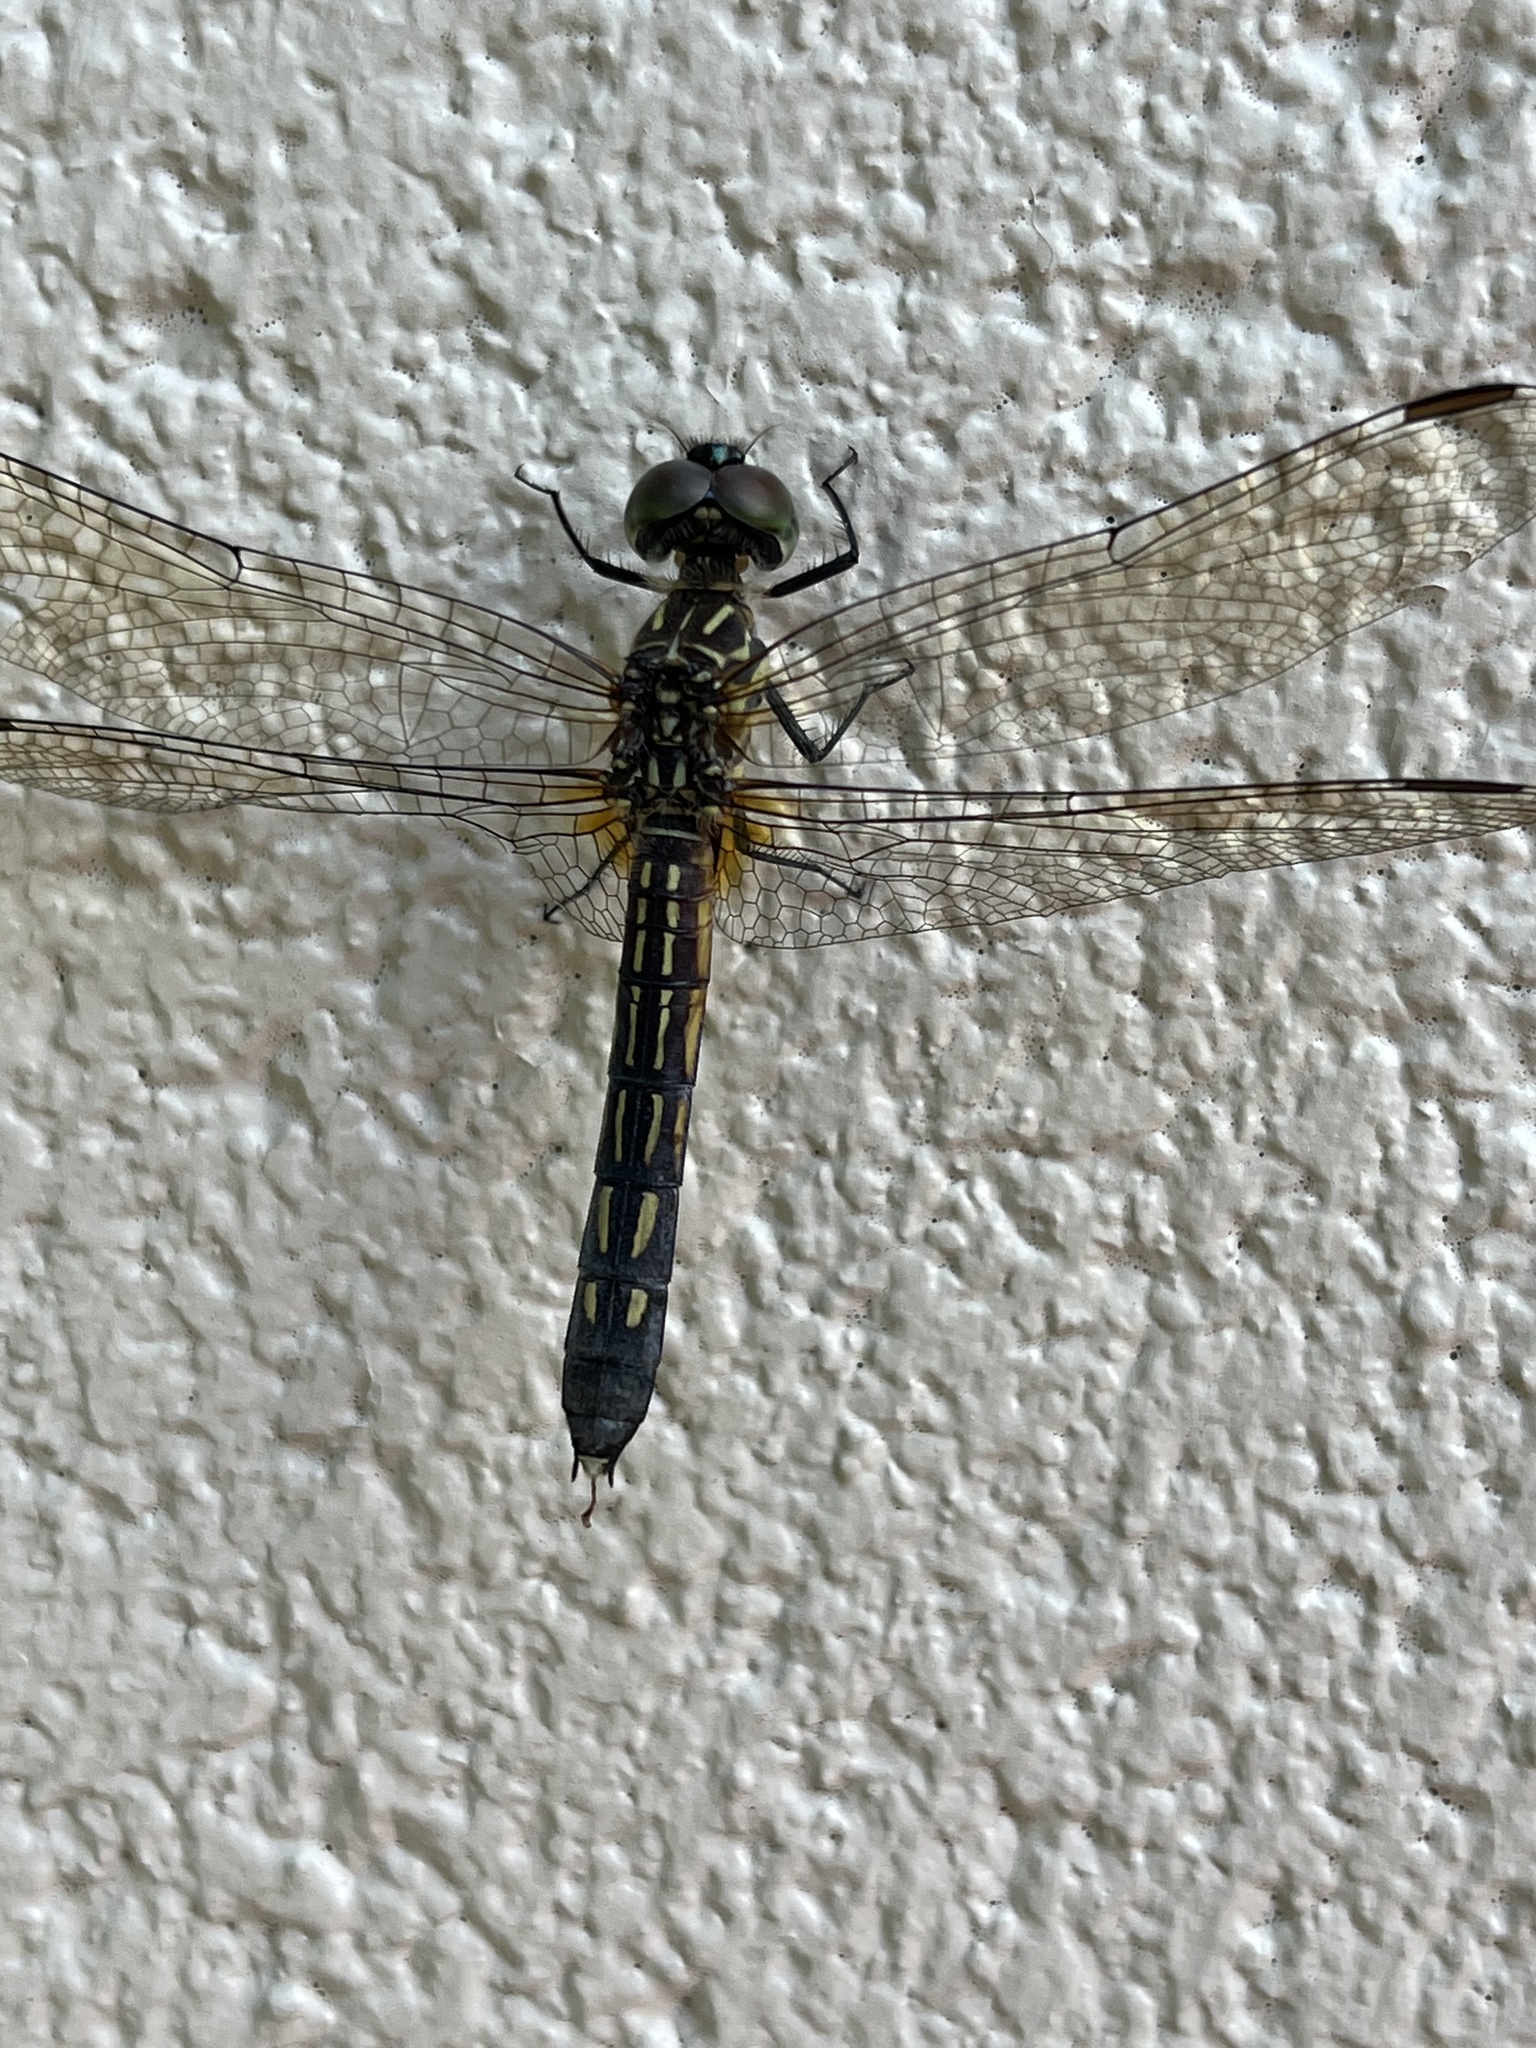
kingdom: Animalia
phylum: Arthropoda
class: Insecta
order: Odonata
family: Libellulidae
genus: Pachydiplax
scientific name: Pachydiplax longipennis
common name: Blue dasher
